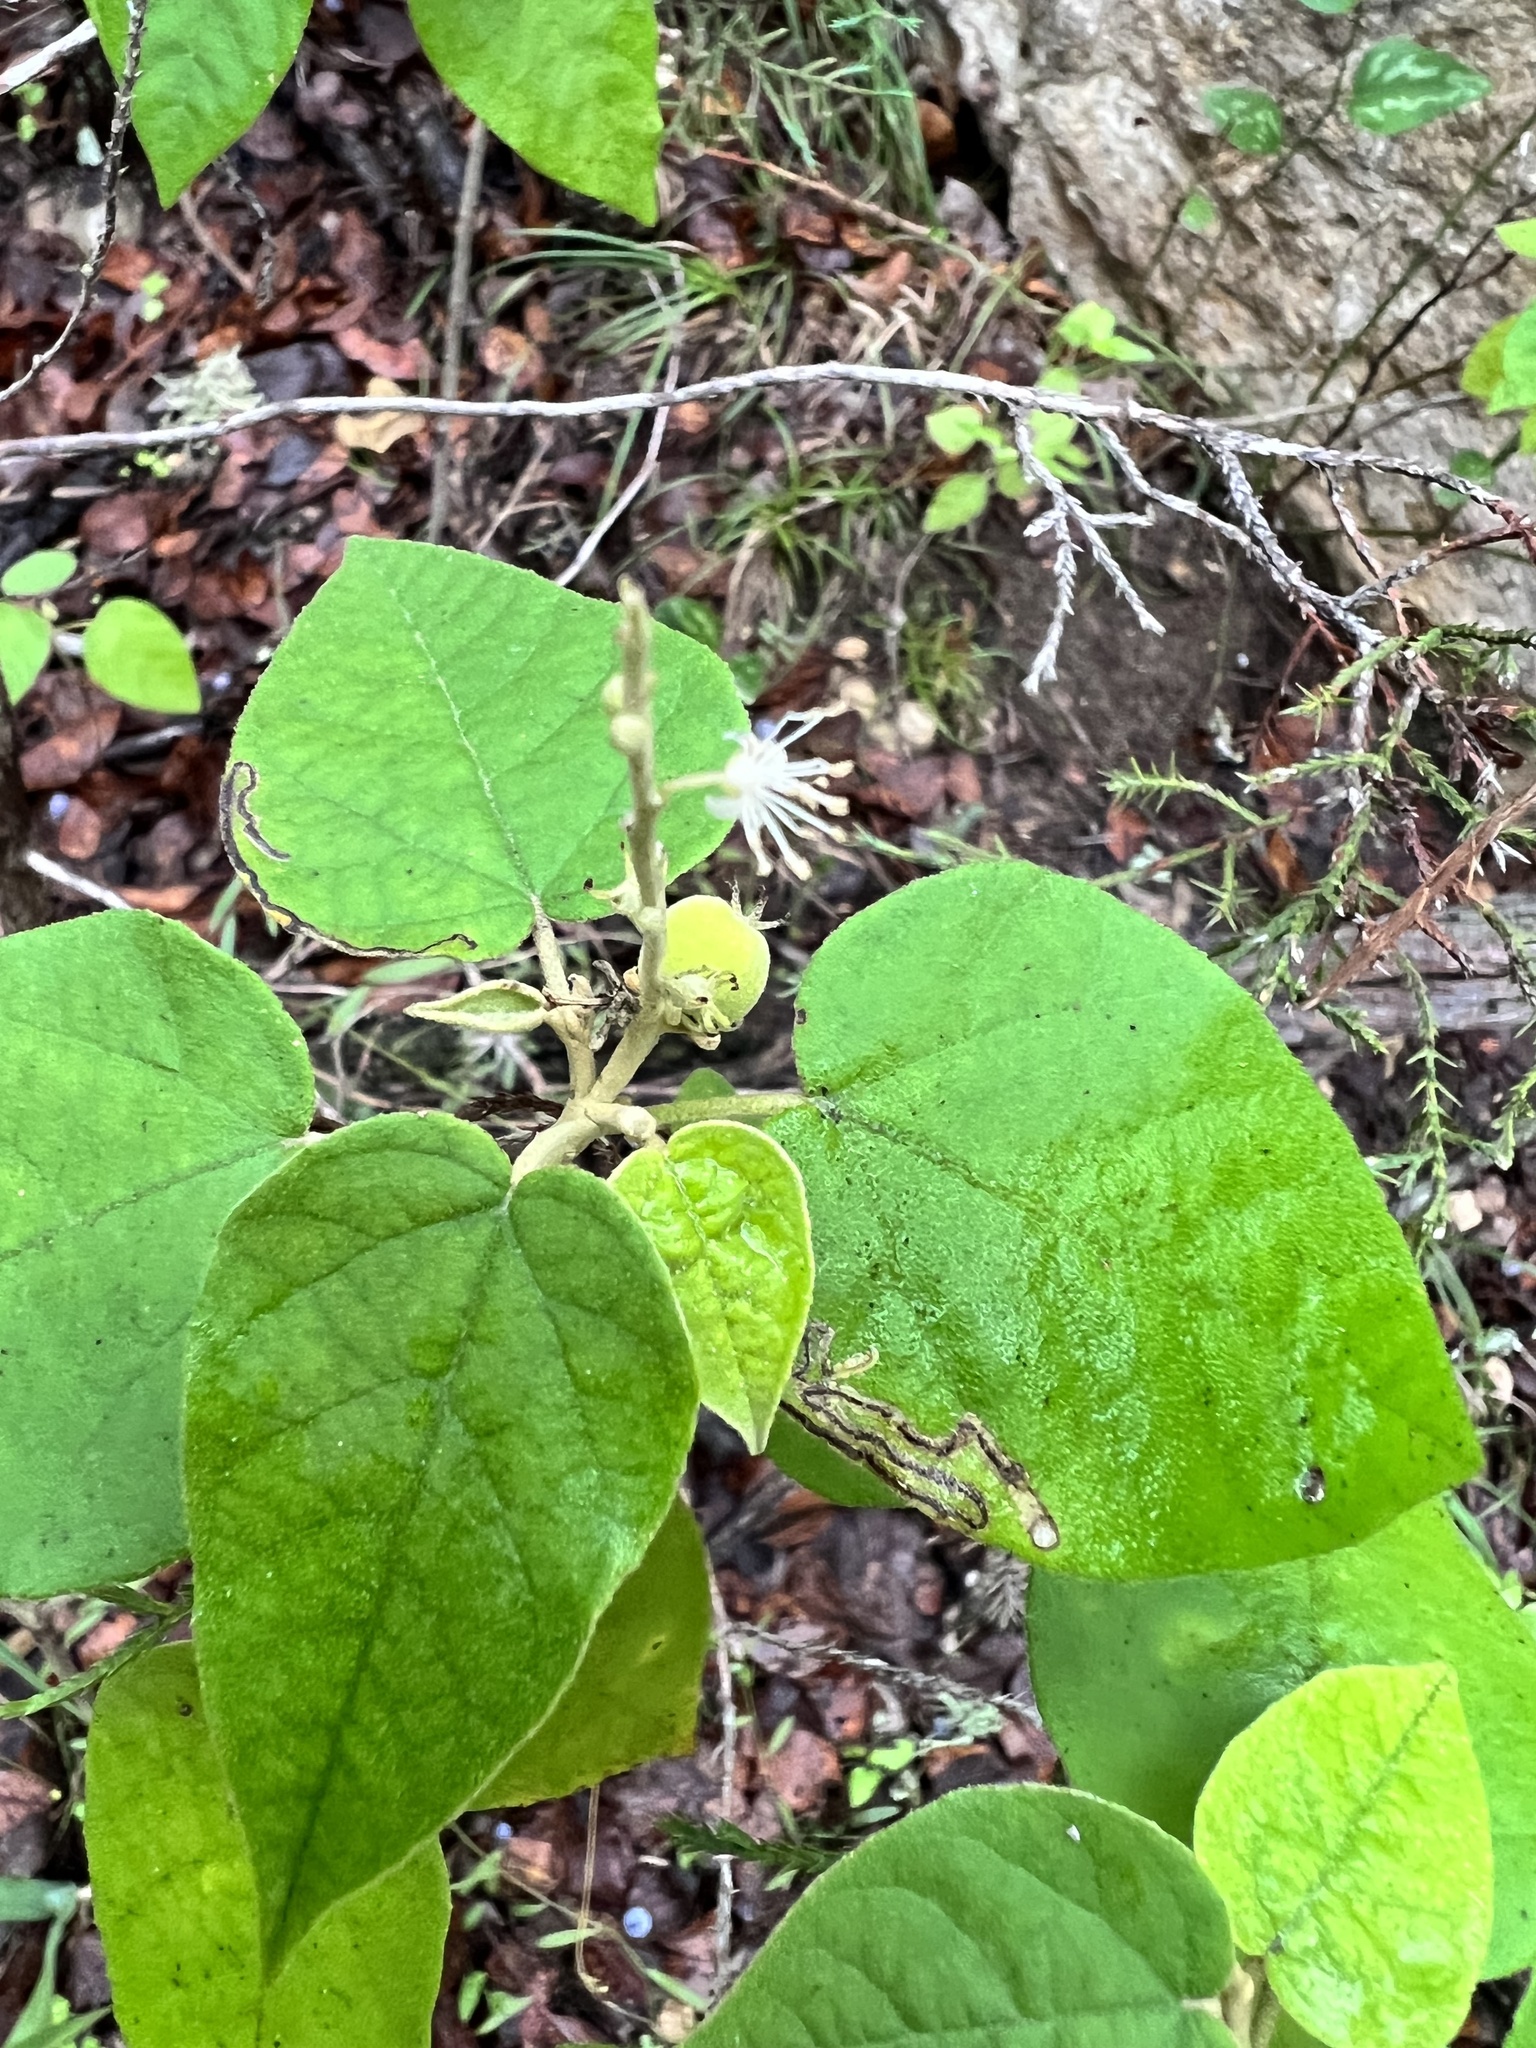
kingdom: Plantae
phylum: Tracheophyta
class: Magnoliopsida
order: Malpighiales
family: Euphorbiaceae
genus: Croton
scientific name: Croton fruticulosus
